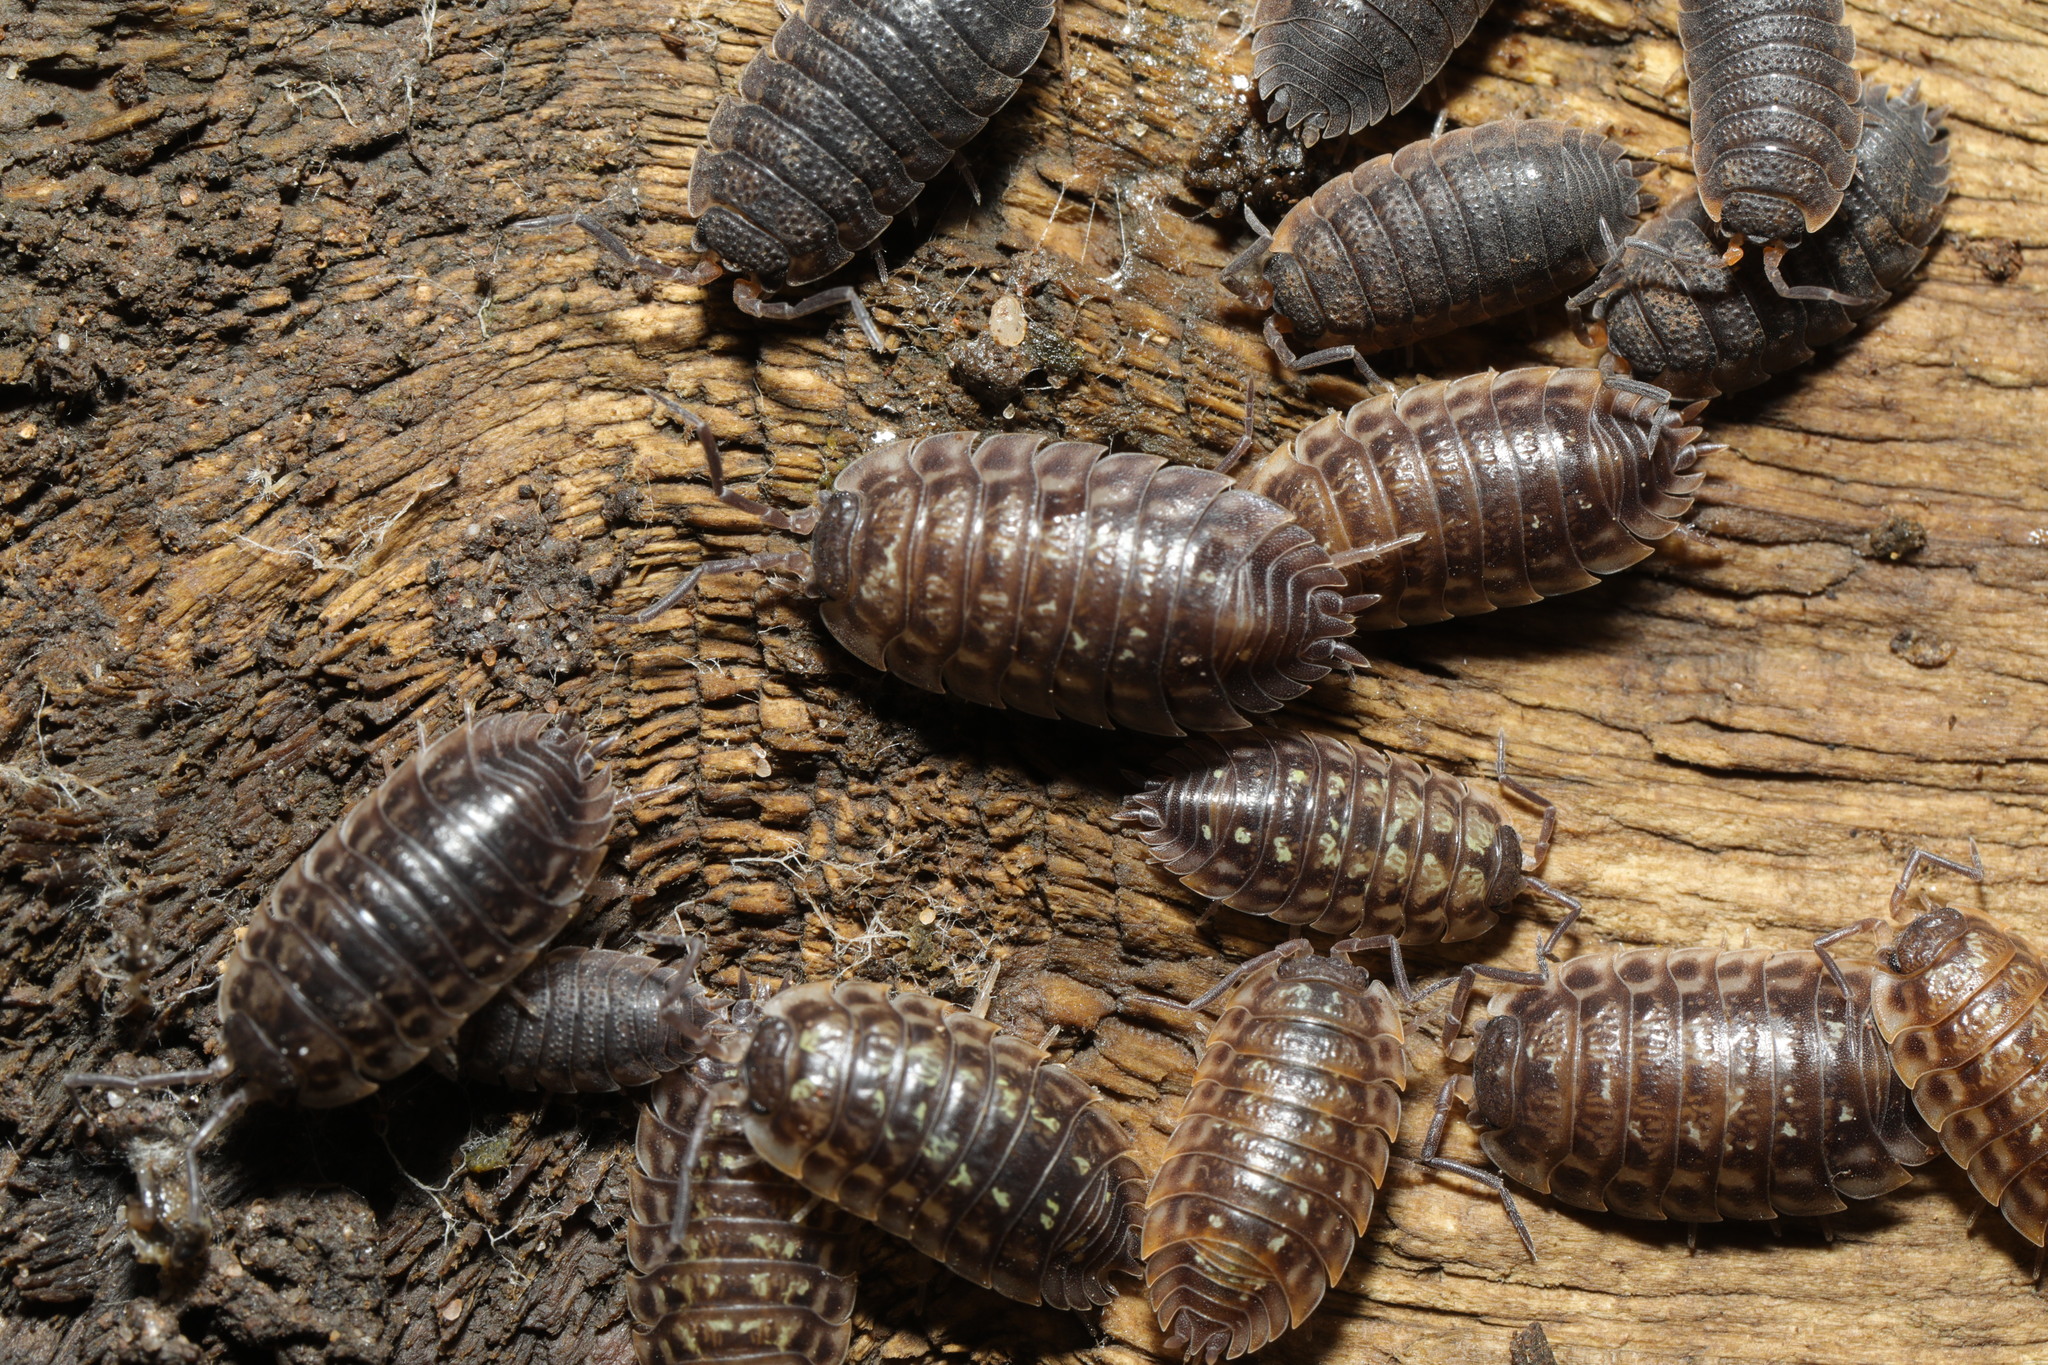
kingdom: Animalia
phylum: Arthropoda
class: Malacostraca
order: Isopoda
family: Oniscidae
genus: Oniscus
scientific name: Oniscus asellus
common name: Common shiny woodlouse
